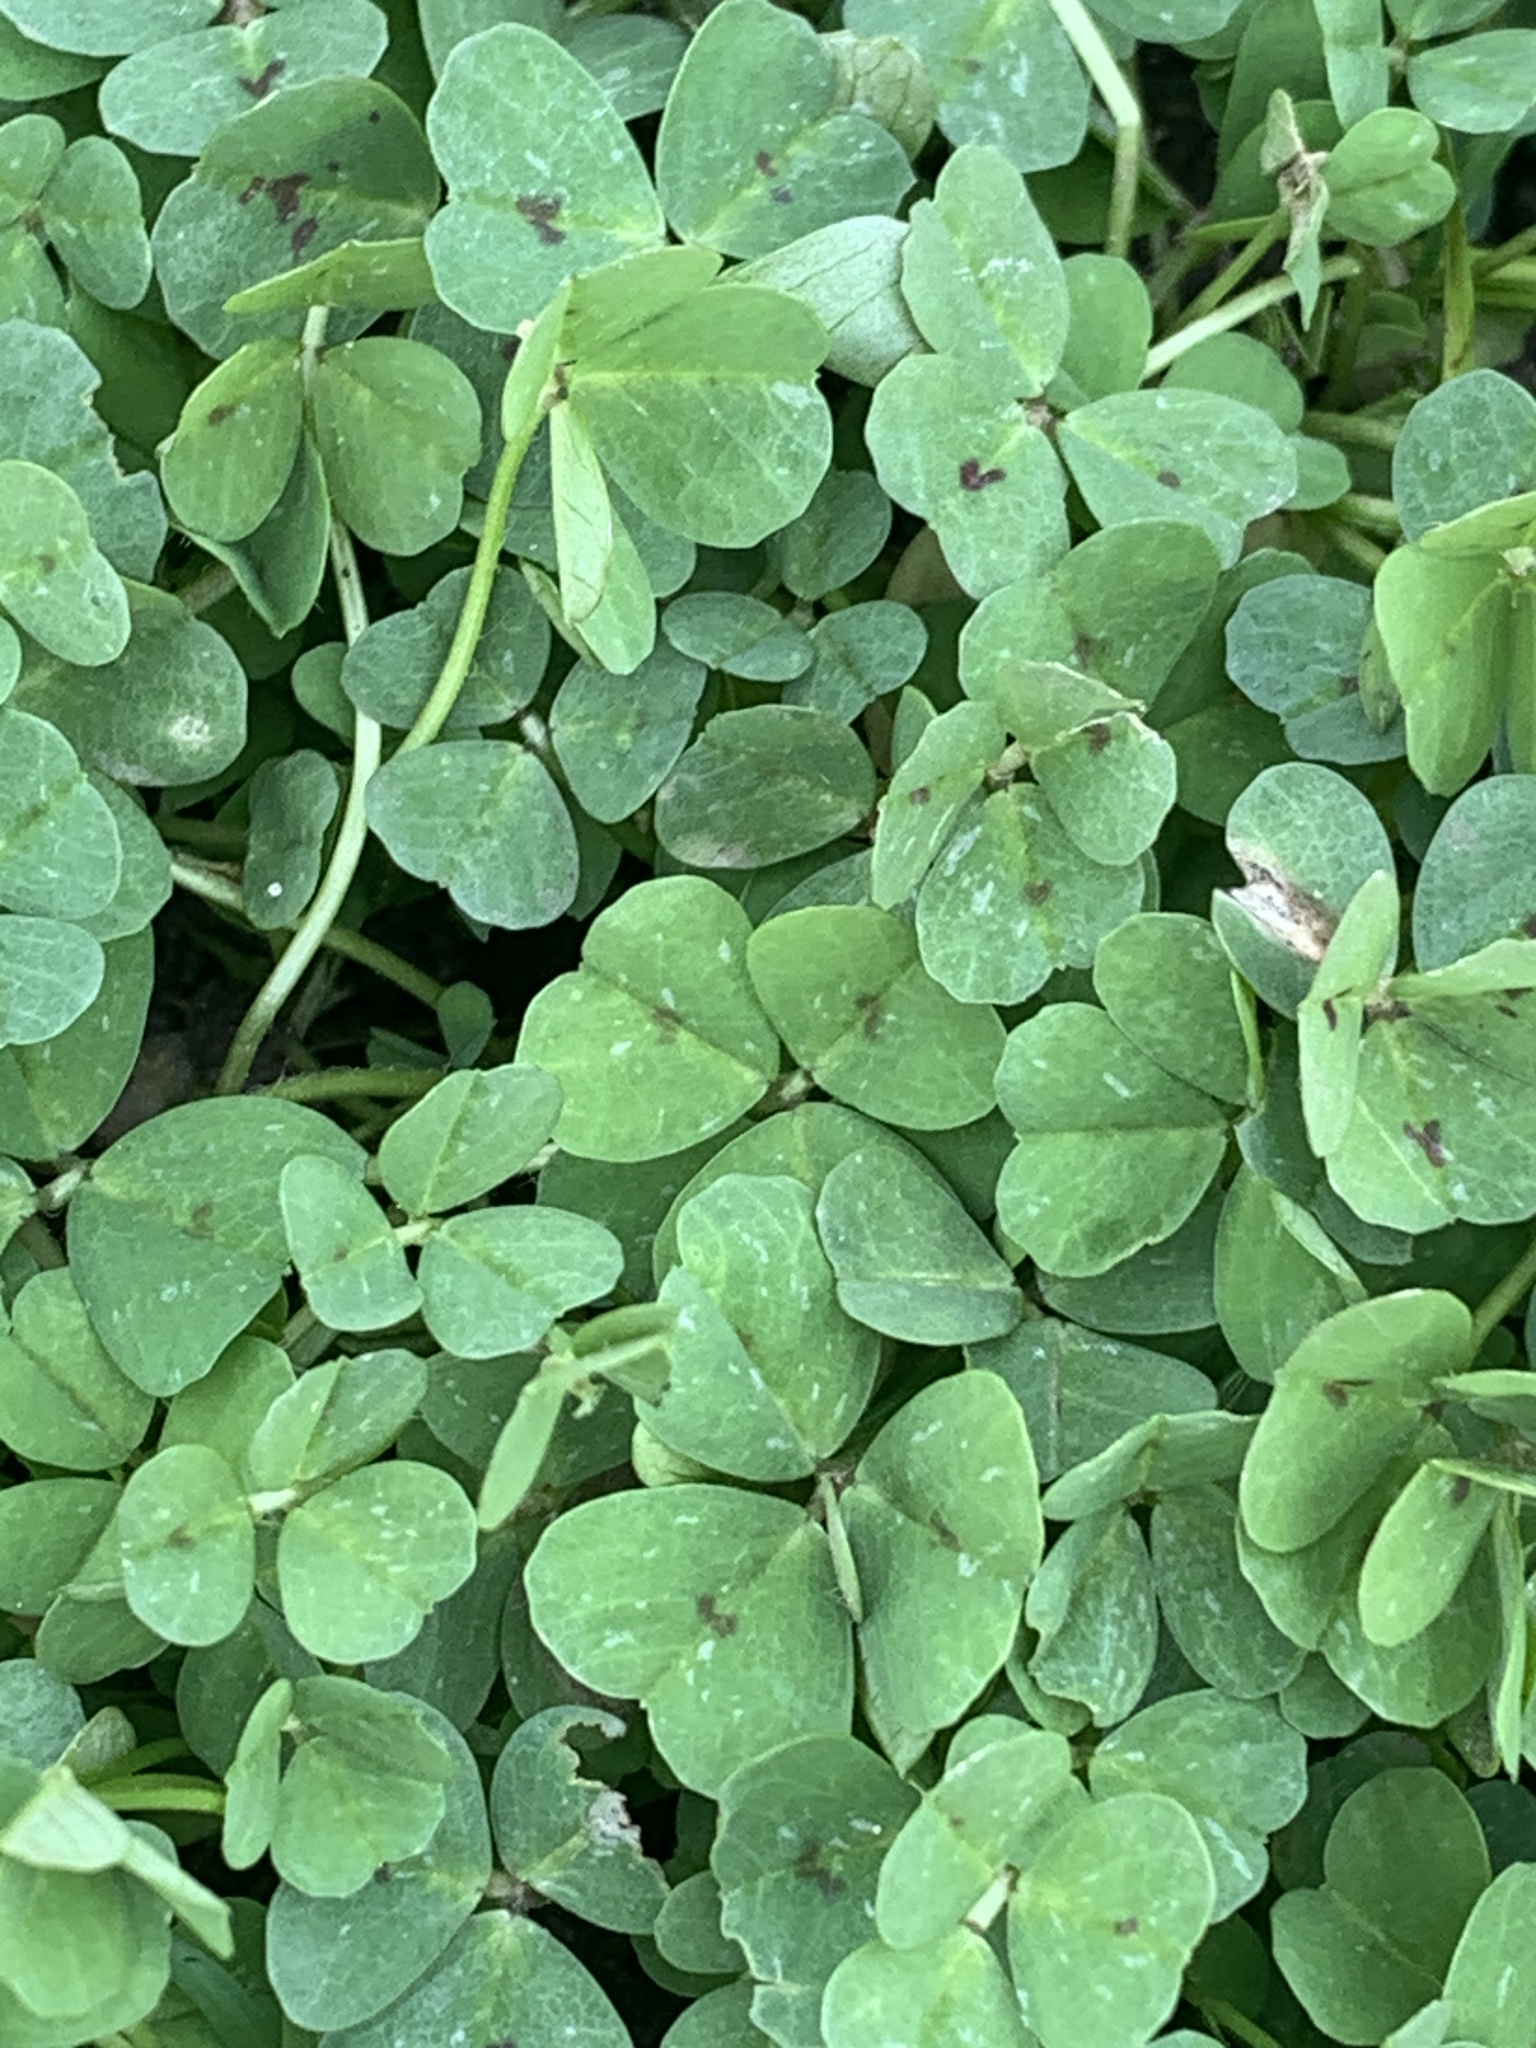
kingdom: Plantae
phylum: Tracheophyta
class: Magnoliopsida
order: Fabales
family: Fabaceae
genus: Medicago
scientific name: Medicago arabica
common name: Spotted medick
